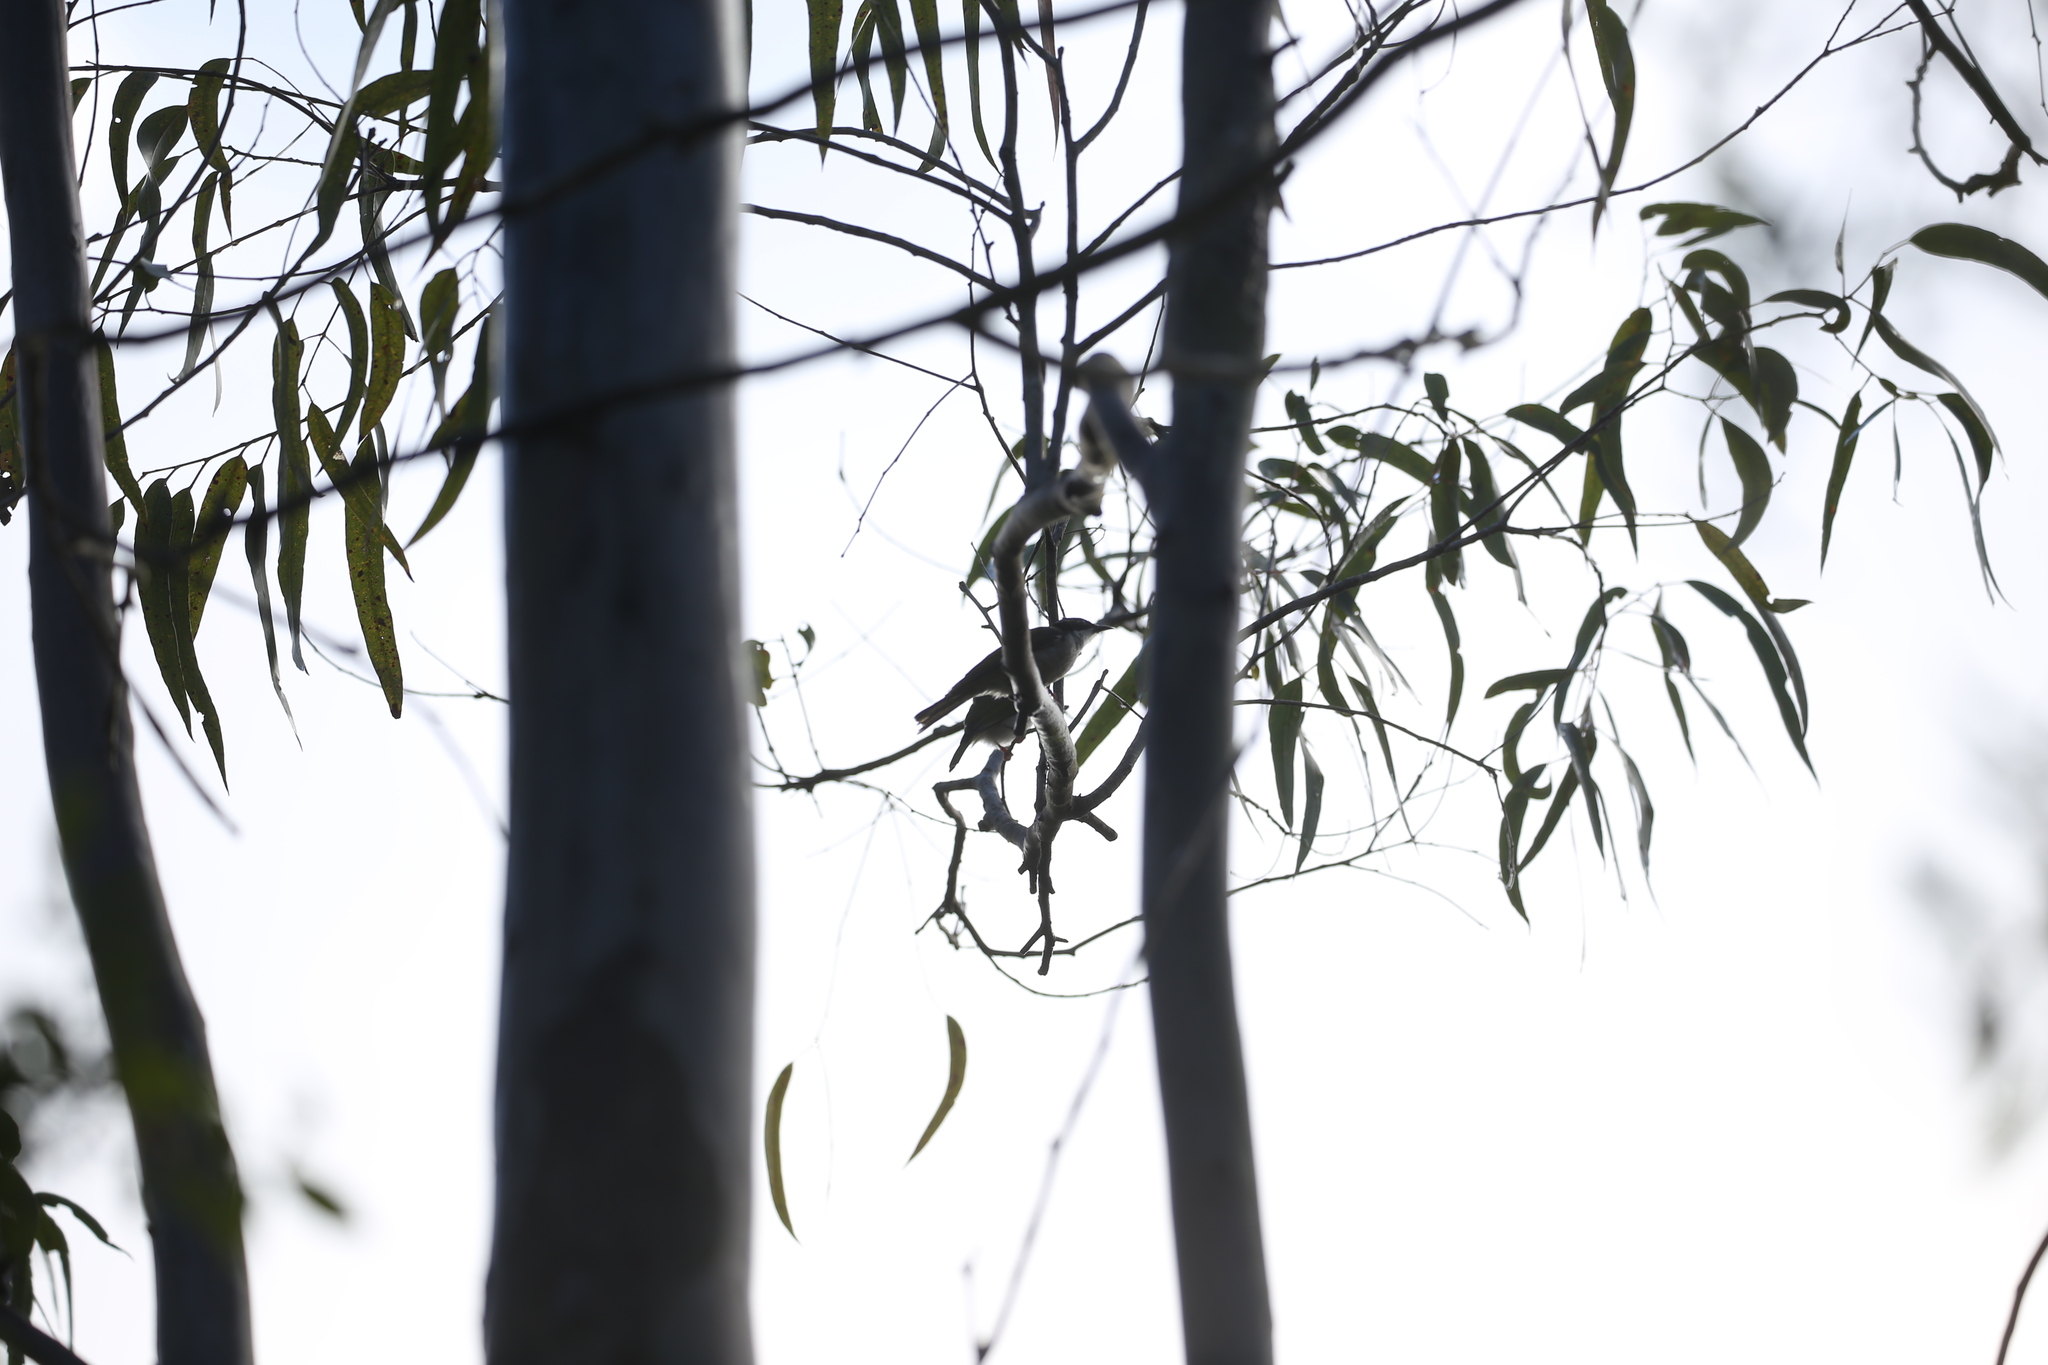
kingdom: Animalia
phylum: Chordata
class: Aves
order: Passeriformes
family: Meliphagidae
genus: Melithreptus
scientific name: Melithreptus albogularis
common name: White-throated honeyeater
